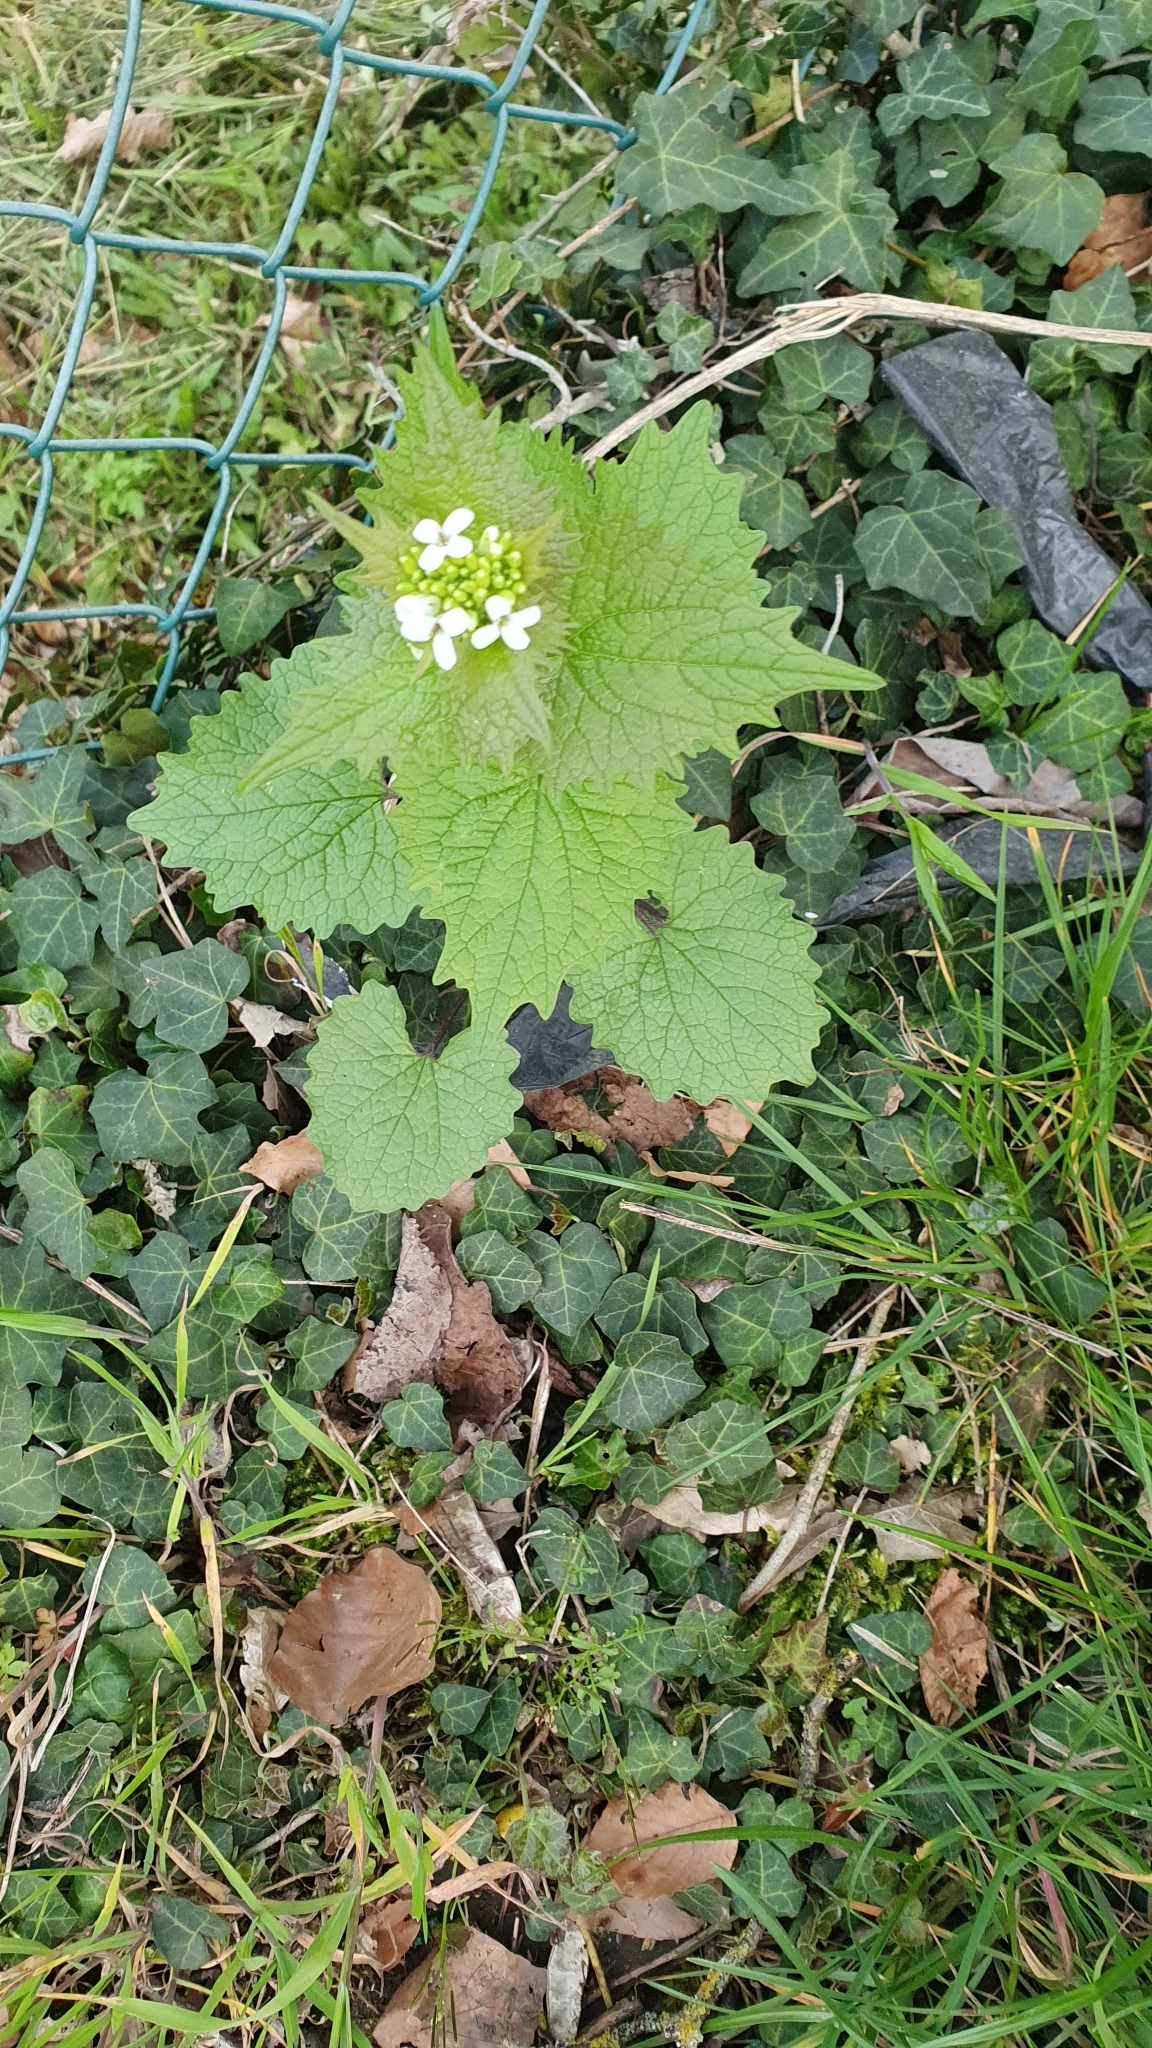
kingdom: Plantae
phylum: Tracheophyta
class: Magnoliopsida
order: Brassicales
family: Brassicaceae
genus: Alliaria
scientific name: Alliaria petiolata
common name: Garlic mustard
